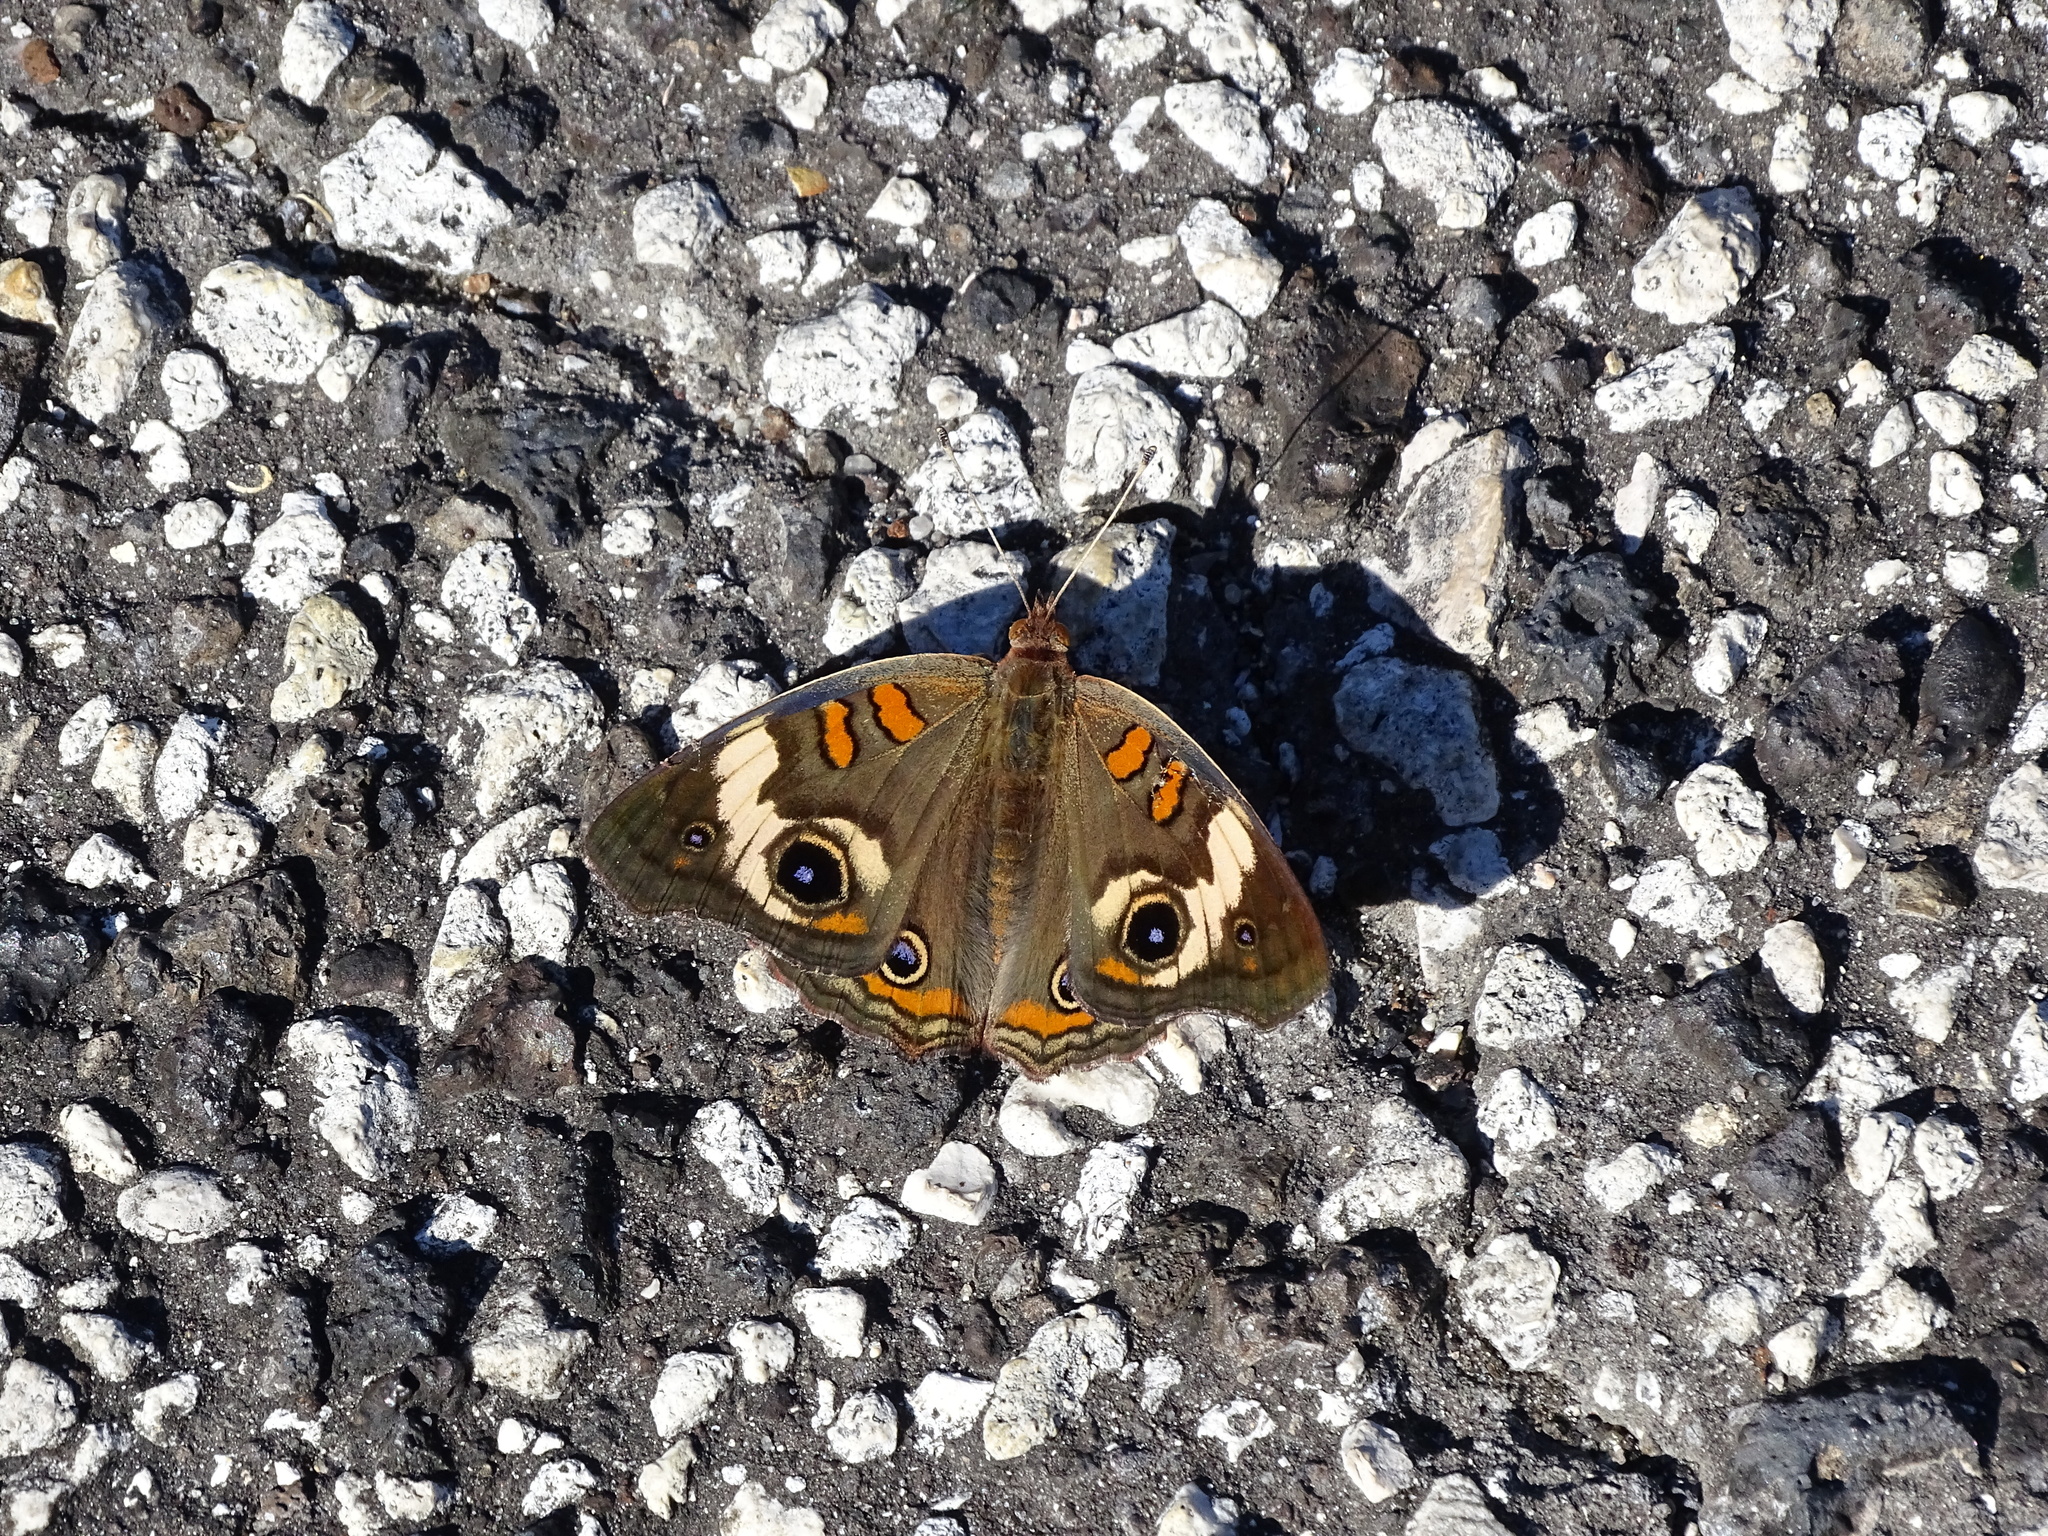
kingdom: Animalia
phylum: Arthropoda
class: Insecta
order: Lepidoptera
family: Nymphalidae
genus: Junonia
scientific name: Junonia coenia
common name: Common buckeye
